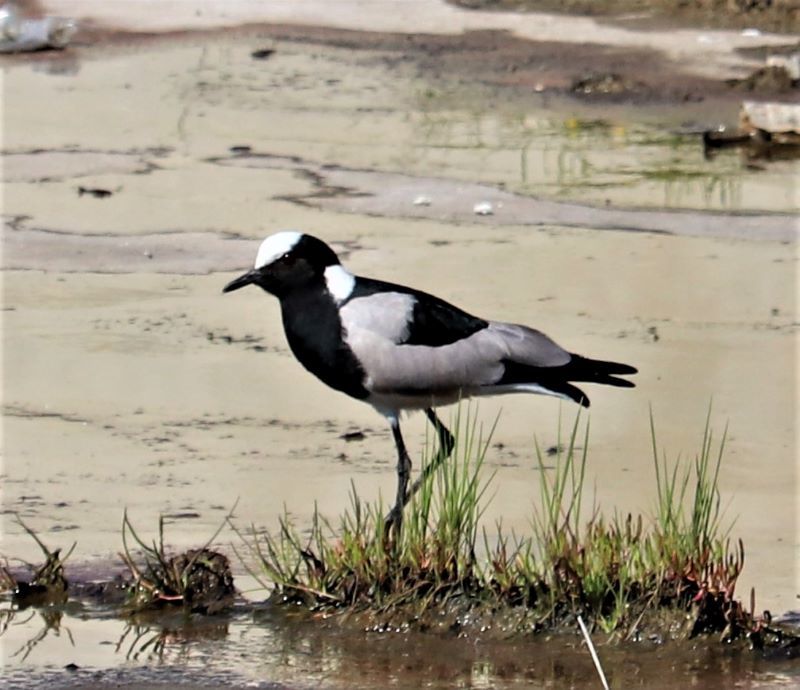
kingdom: Animalia
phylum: Chordata
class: Aves
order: Charadriiformes
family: Charadriidae
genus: Vanellus
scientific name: Vanellus armatus
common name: Blacksmith lapwing
